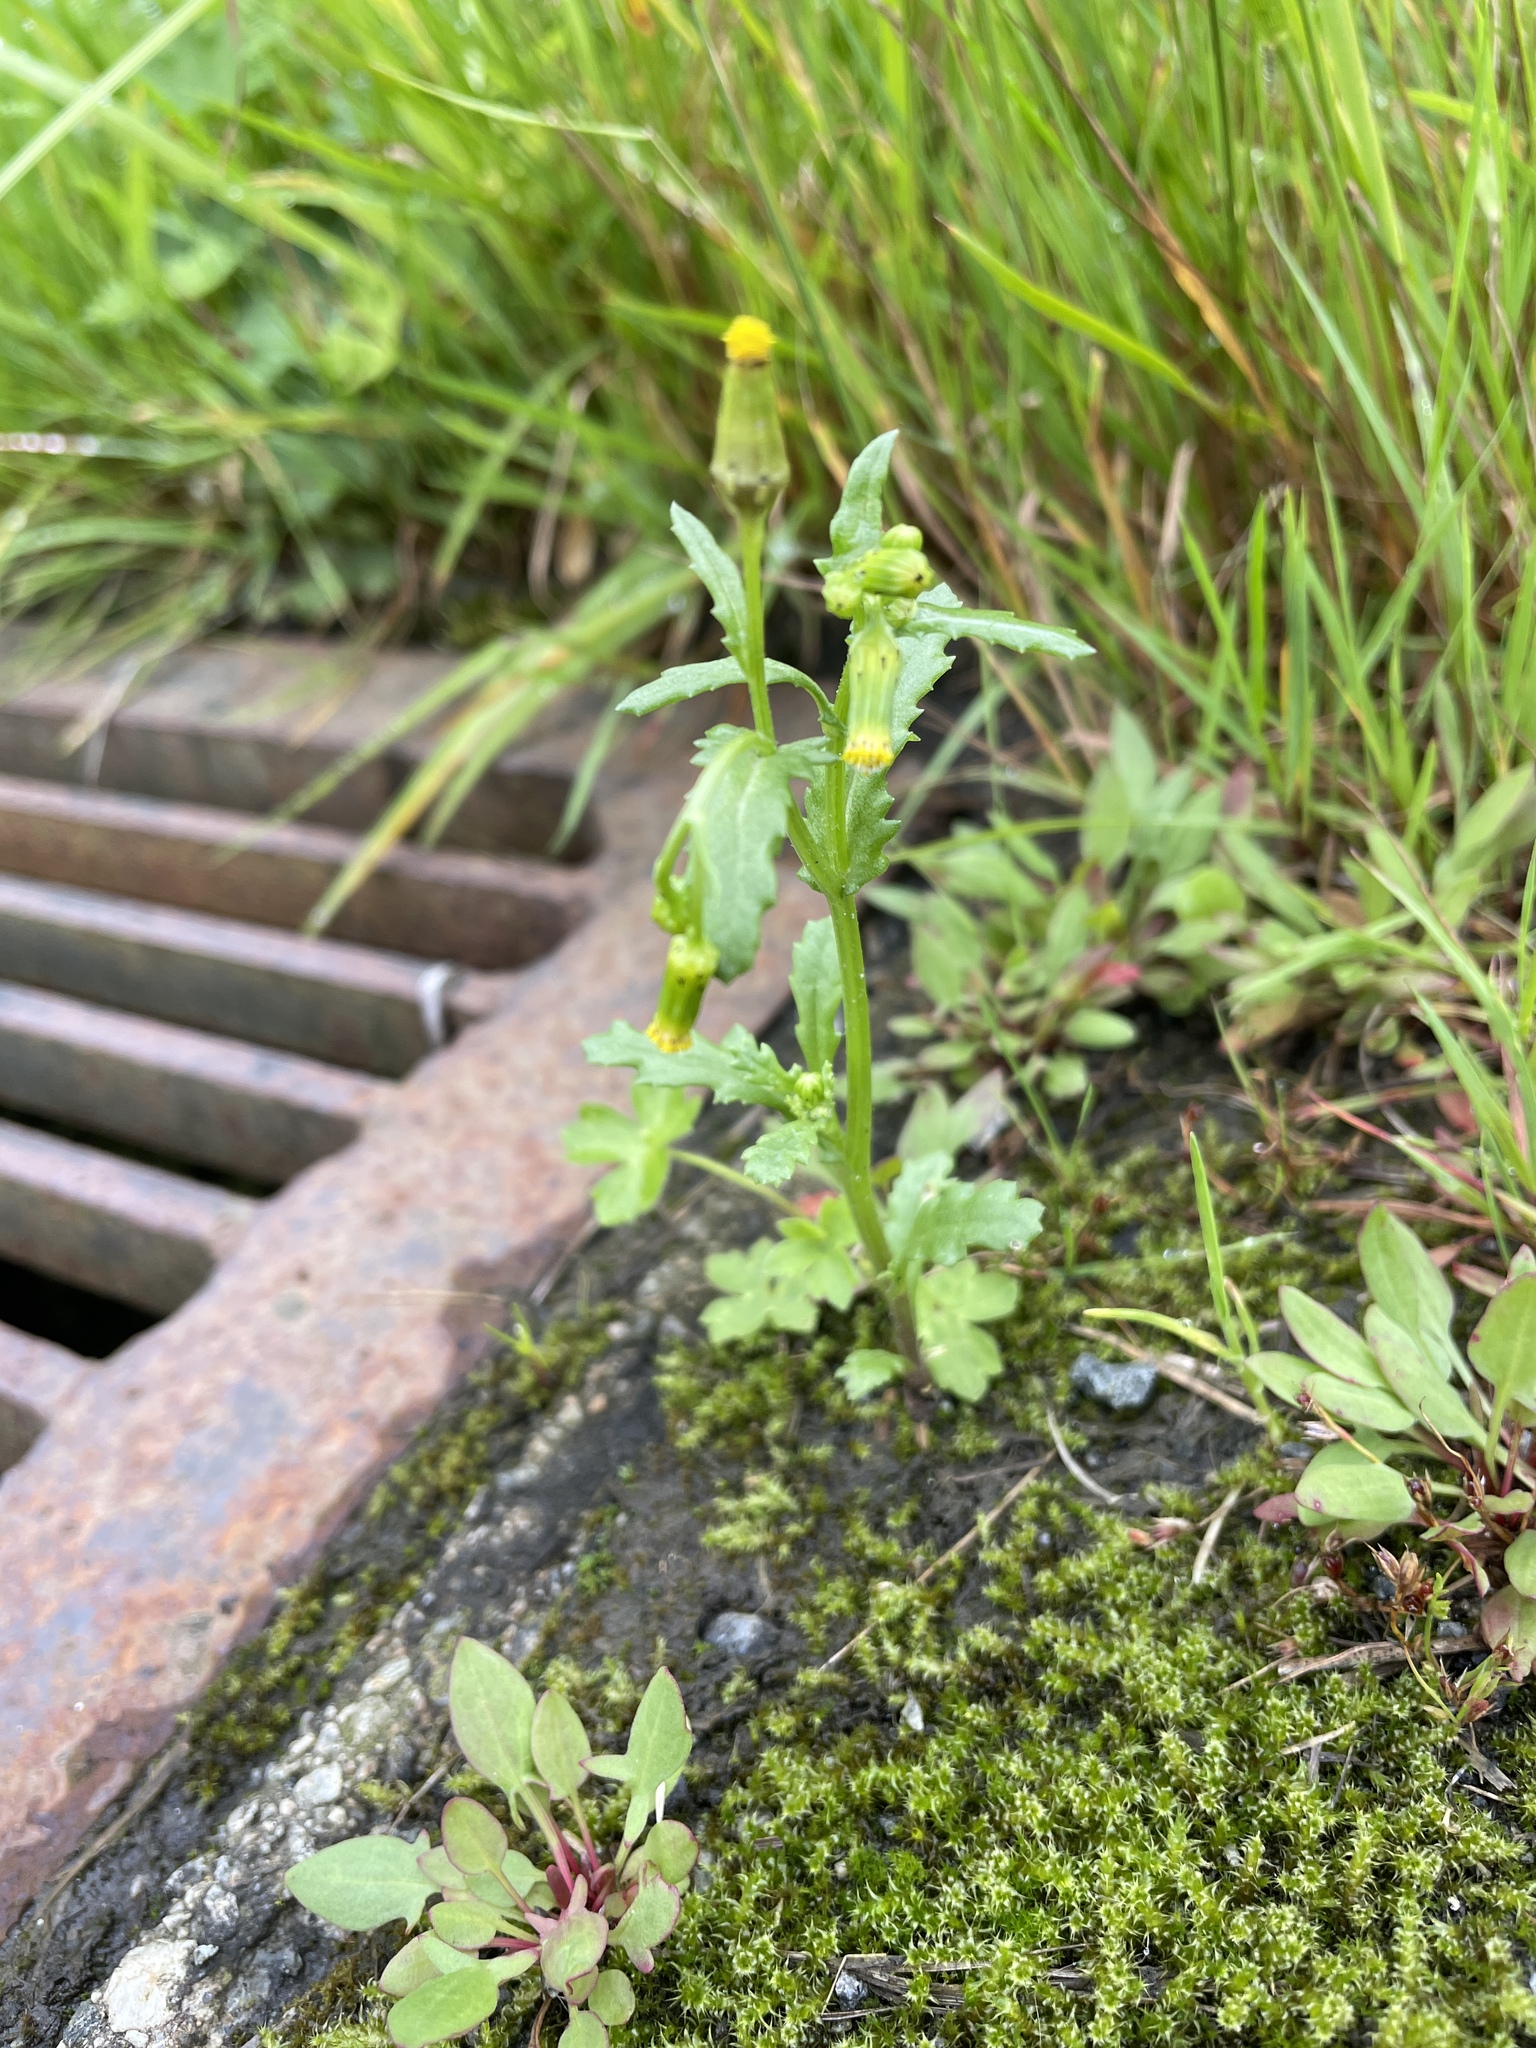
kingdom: Plantae
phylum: Tracheophyta
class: Magnoliopsida
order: Asterales
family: Asteraceae
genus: Senecio
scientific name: Senecio vulgaris
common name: Old-man-in-the-spring
